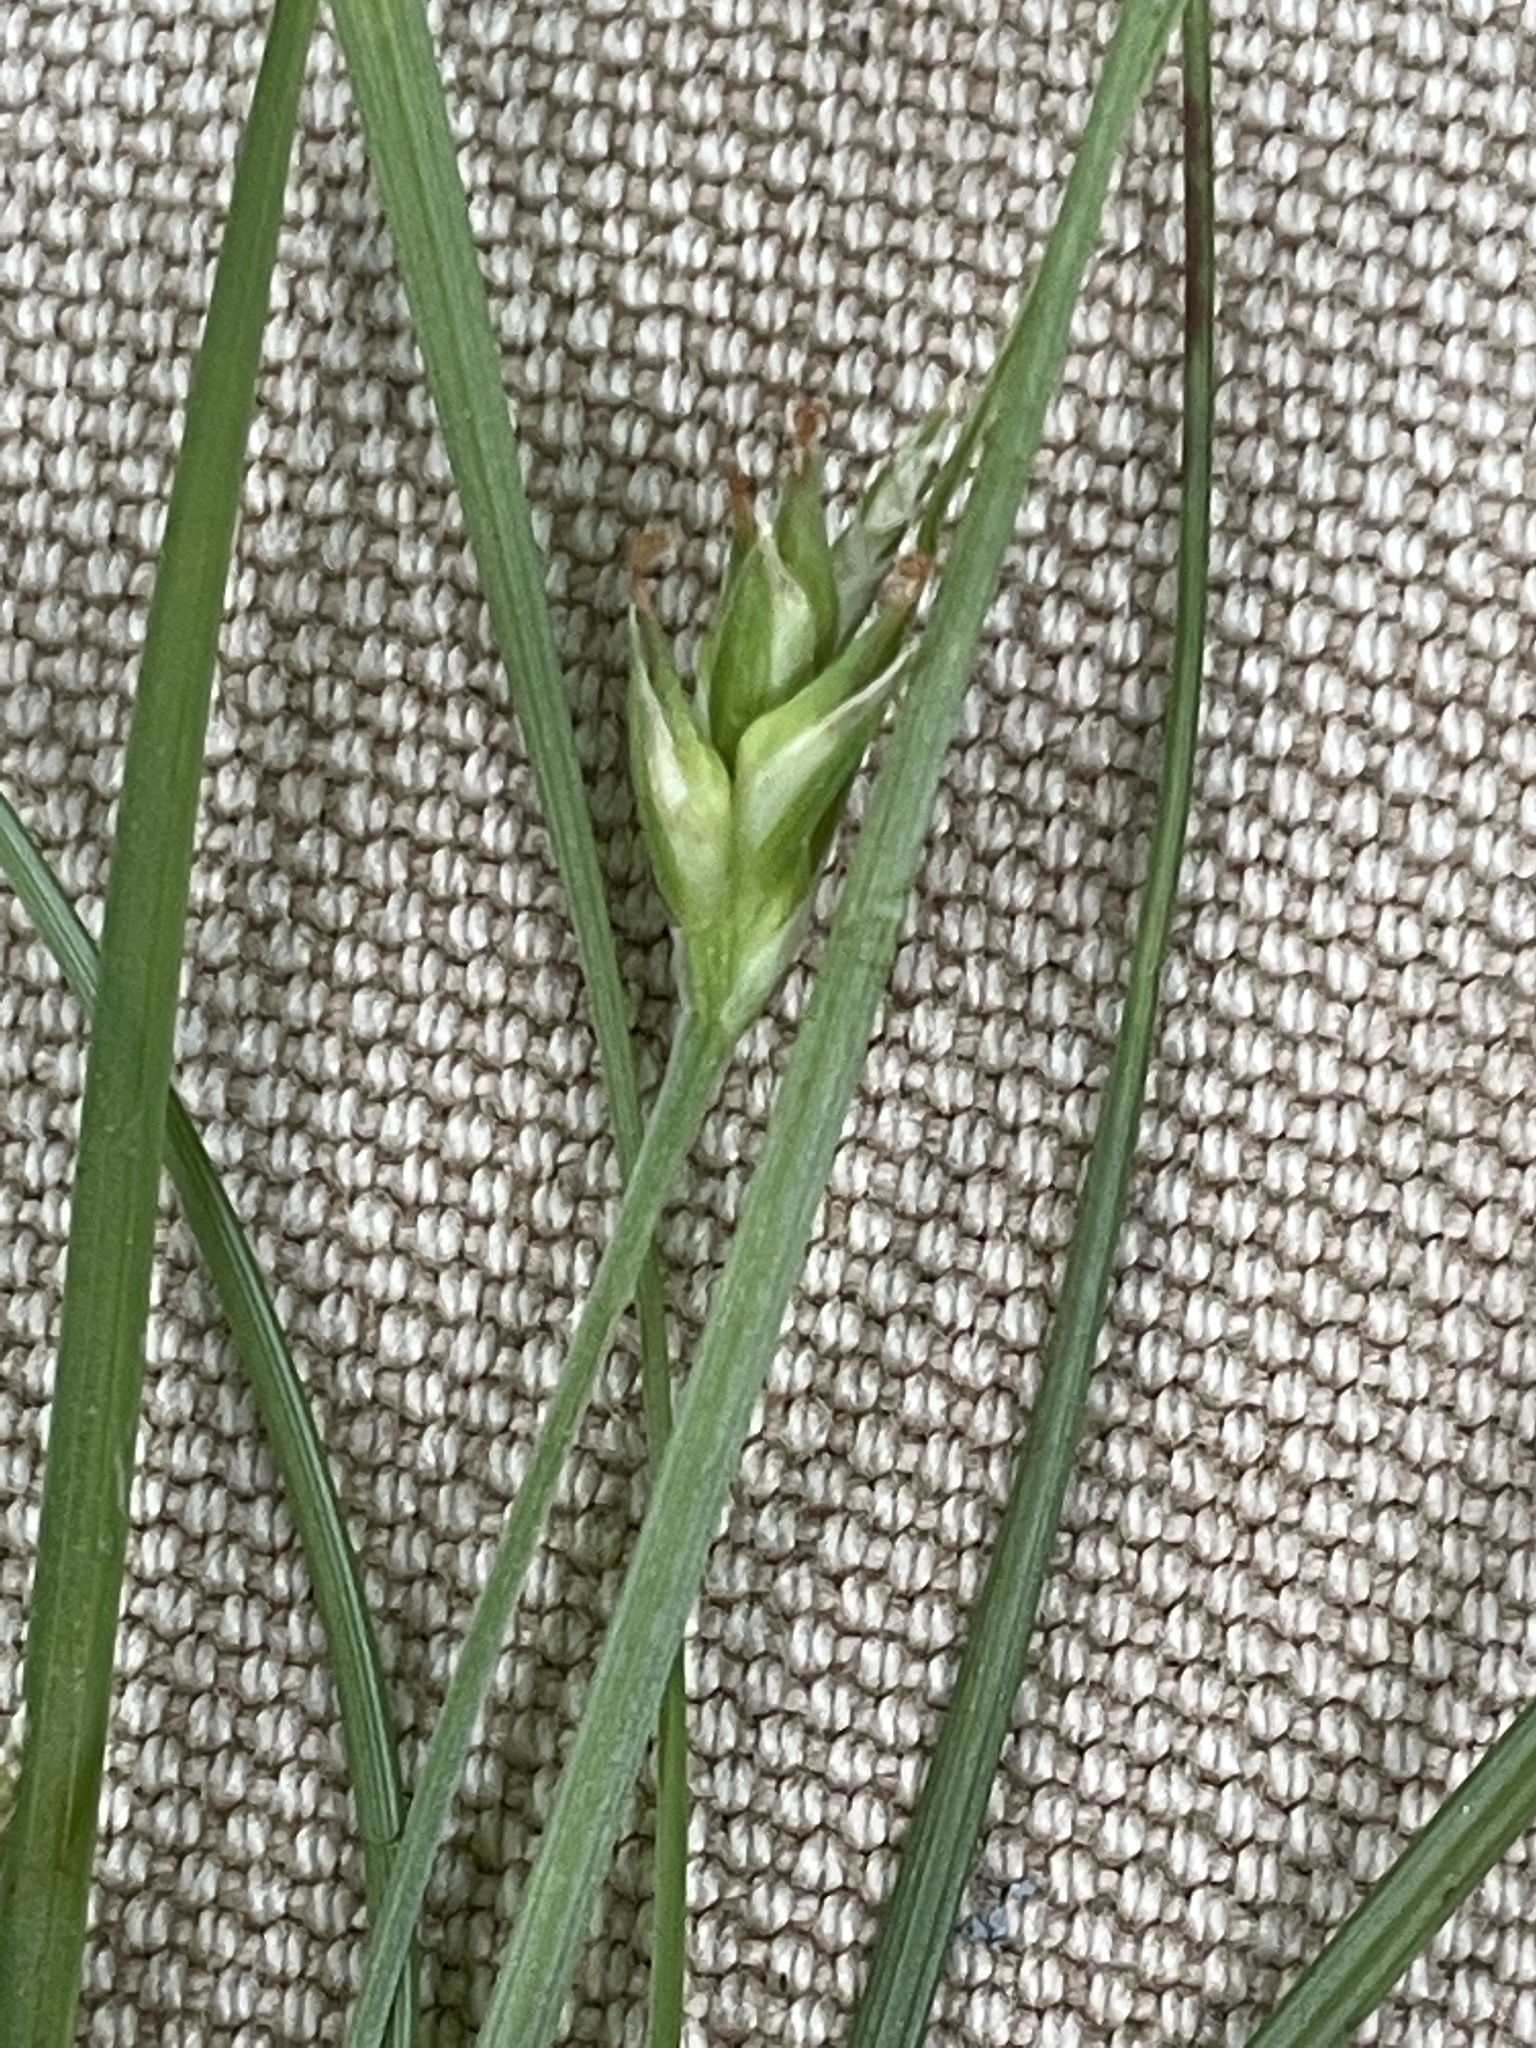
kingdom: Plantae
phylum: Tracheophyta
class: Liliopsida
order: Poales
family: Cyperaceae
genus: Carex
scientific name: Carex willdenowii
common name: Willdenow's sedge
